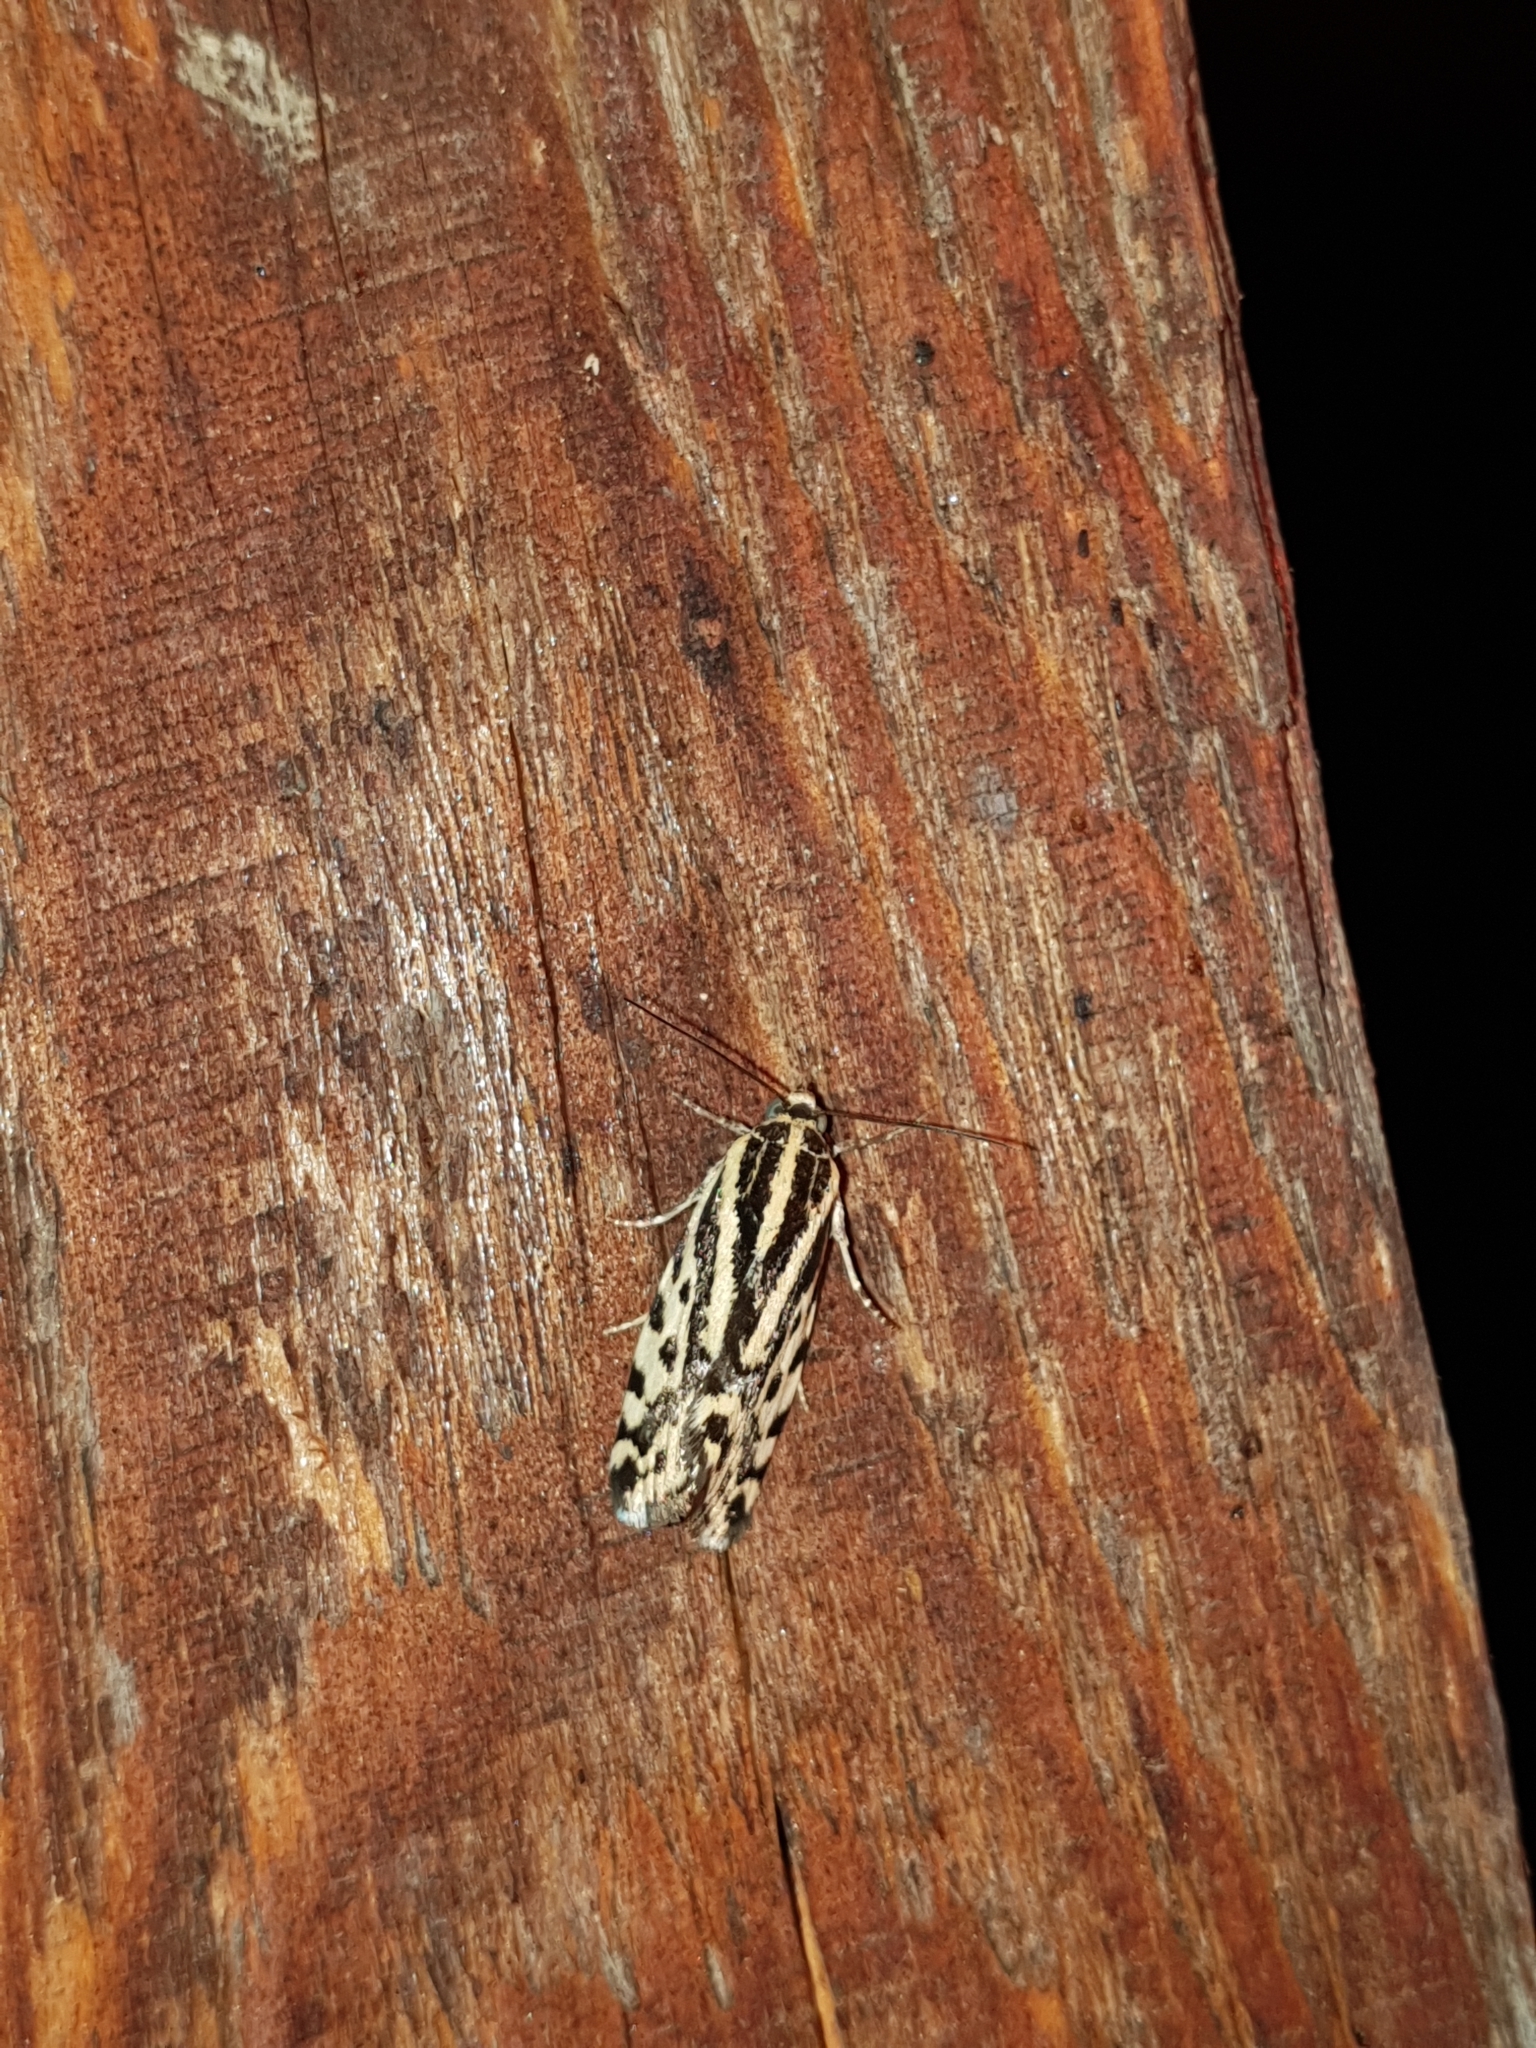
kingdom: Animalia
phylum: Arthropoda
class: Insecta
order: Lepidoptera
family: Noctuidae
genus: Acontia
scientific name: Acontia trabealis
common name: Spotted sulphur
